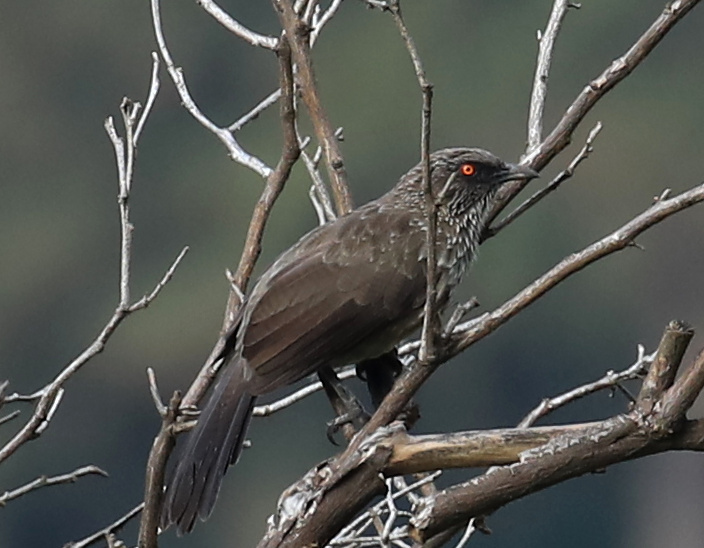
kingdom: Animalia
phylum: Chordata
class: Aves
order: Passeriformes
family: Leiothrichidae
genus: Turdoides
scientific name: Turdoides jardineii
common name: Arrow-marked babbler
